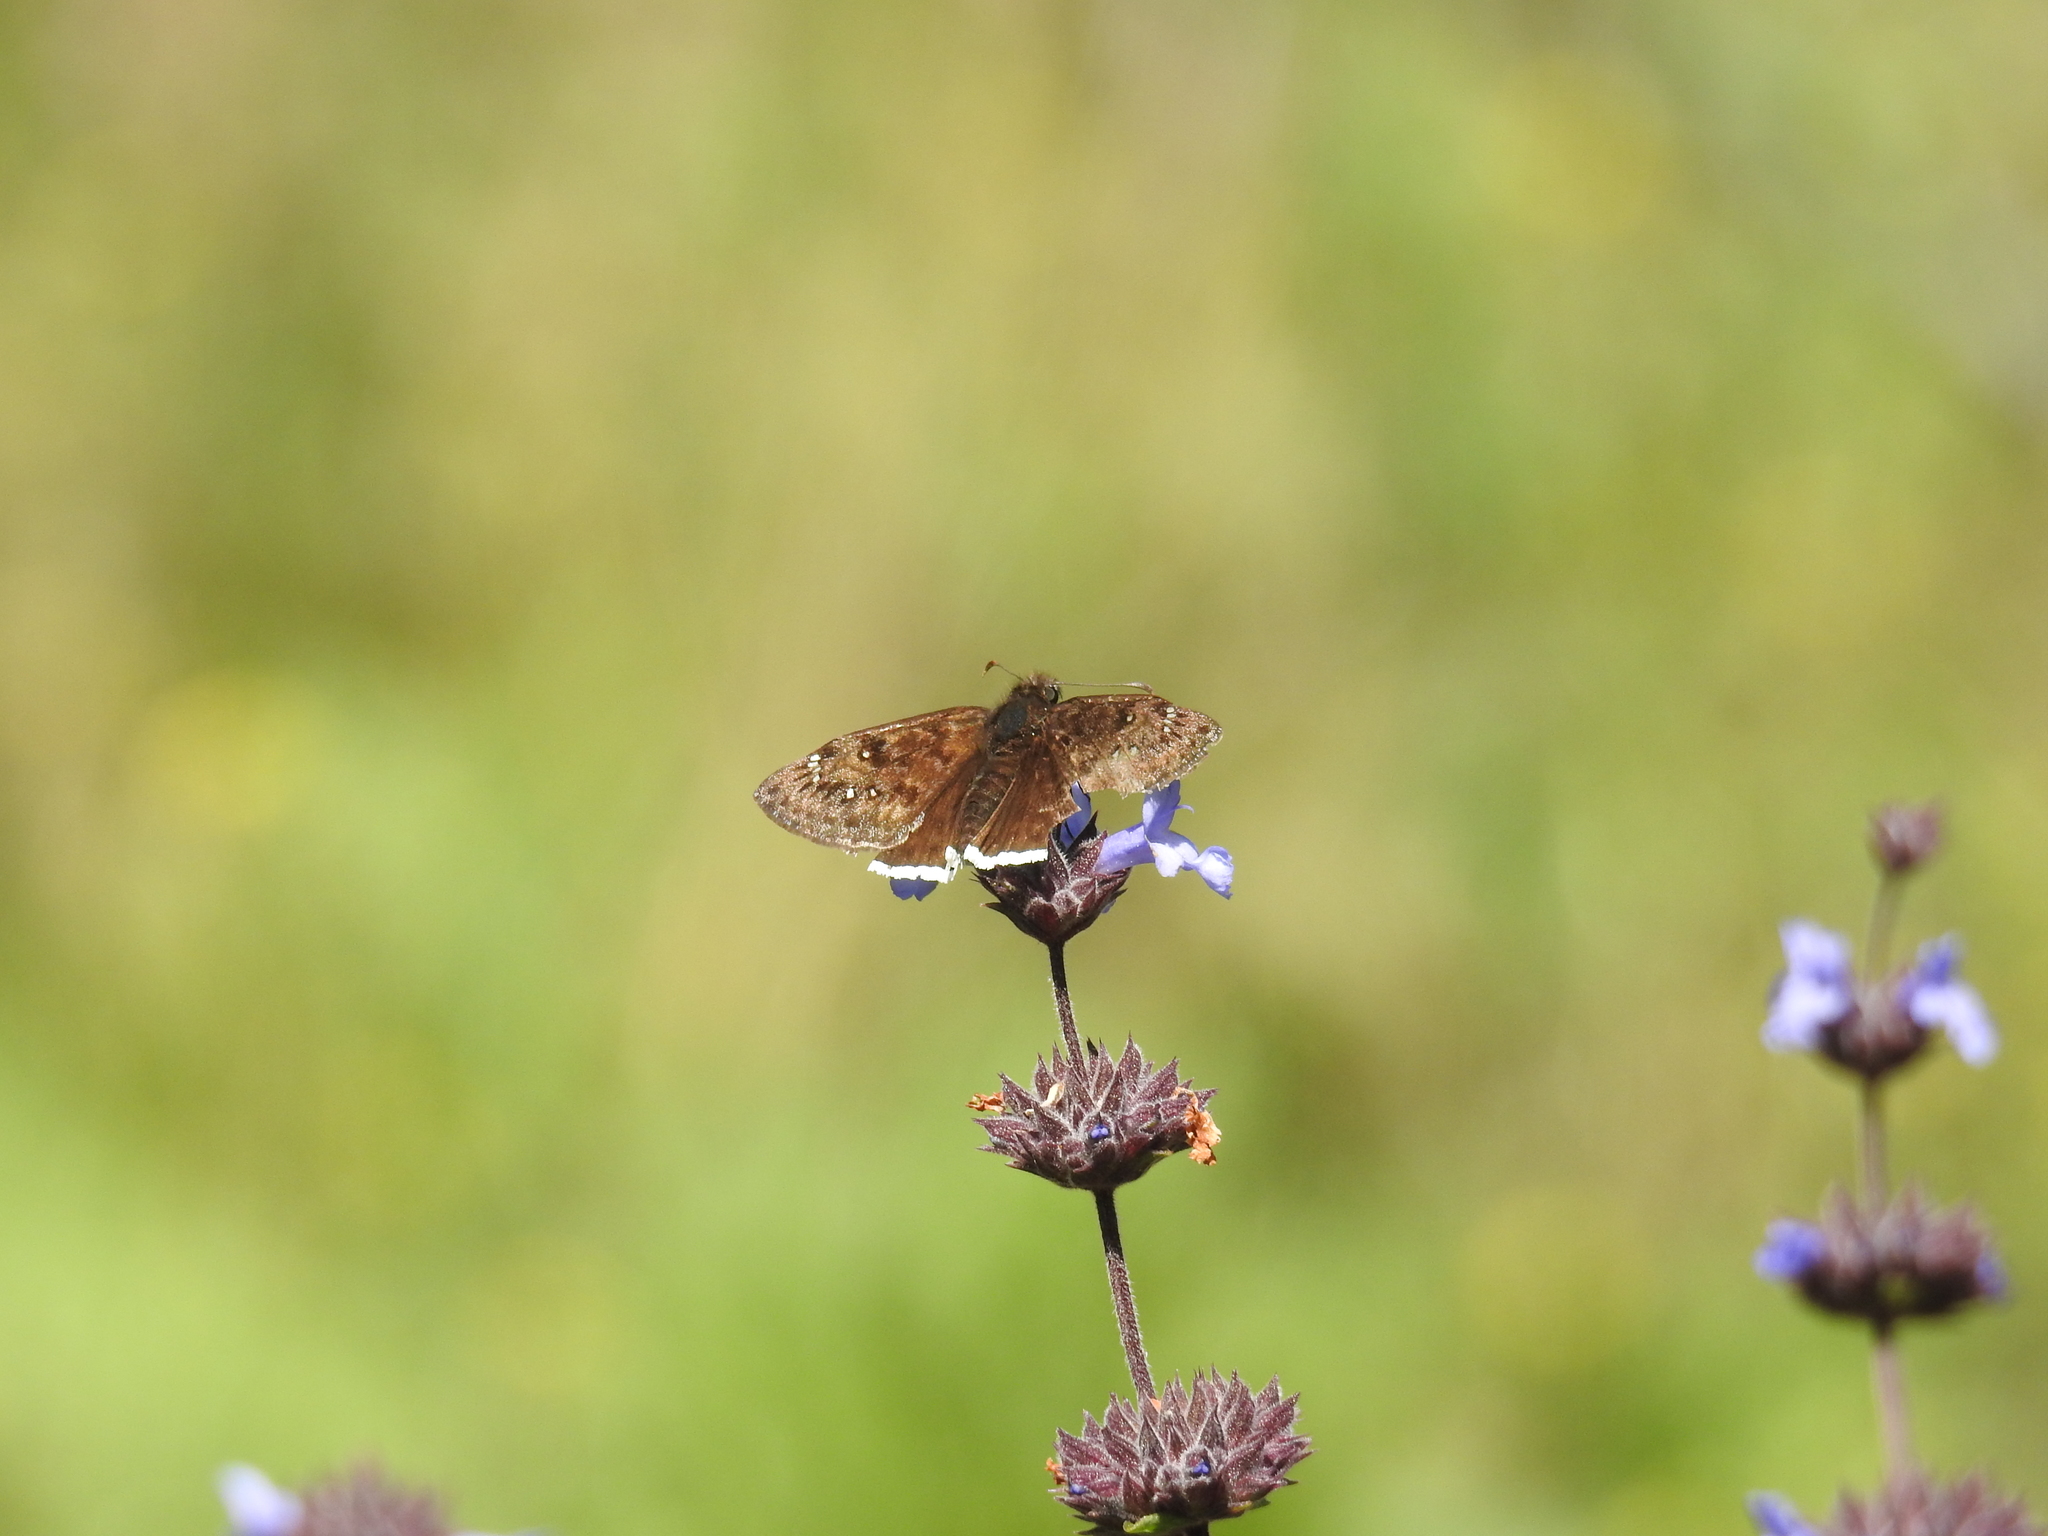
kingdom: Animalia
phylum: Arthropoda
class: Insecta
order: Lepidoptera
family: Hesperiidae
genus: Erynnis
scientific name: Erynnis
